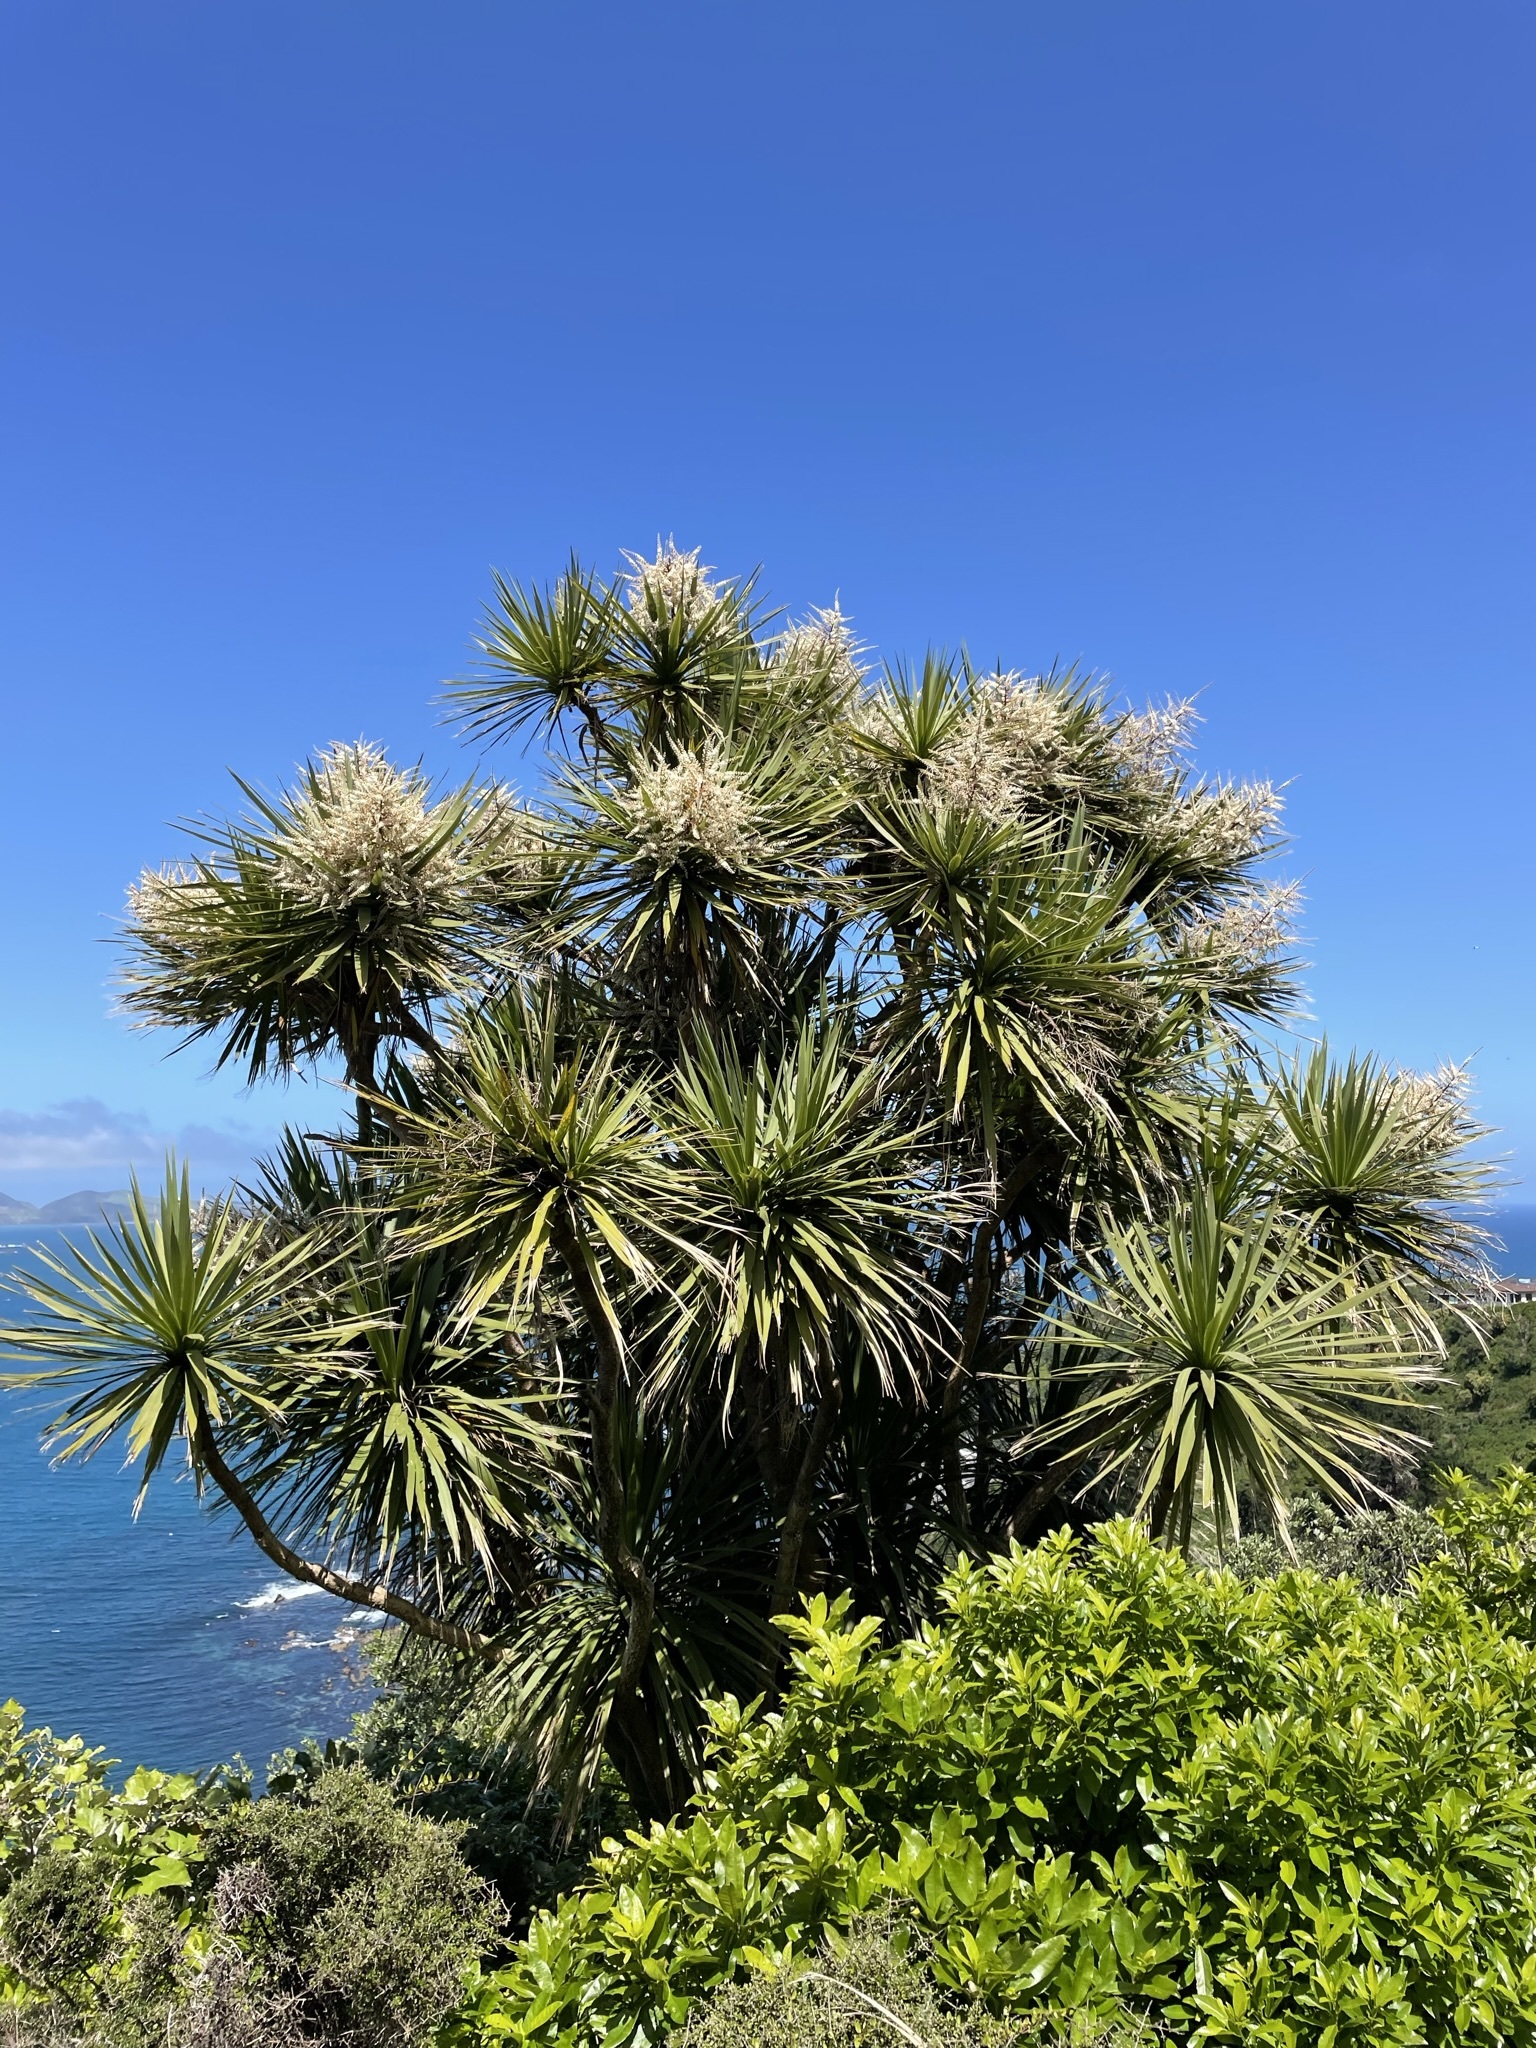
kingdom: Plantae
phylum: Tracheophyta
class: Liliopsida
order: Asparagales
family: Asparagaceae
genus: Cordyline
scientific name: Cordyline australis
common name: Cabbage-palm
